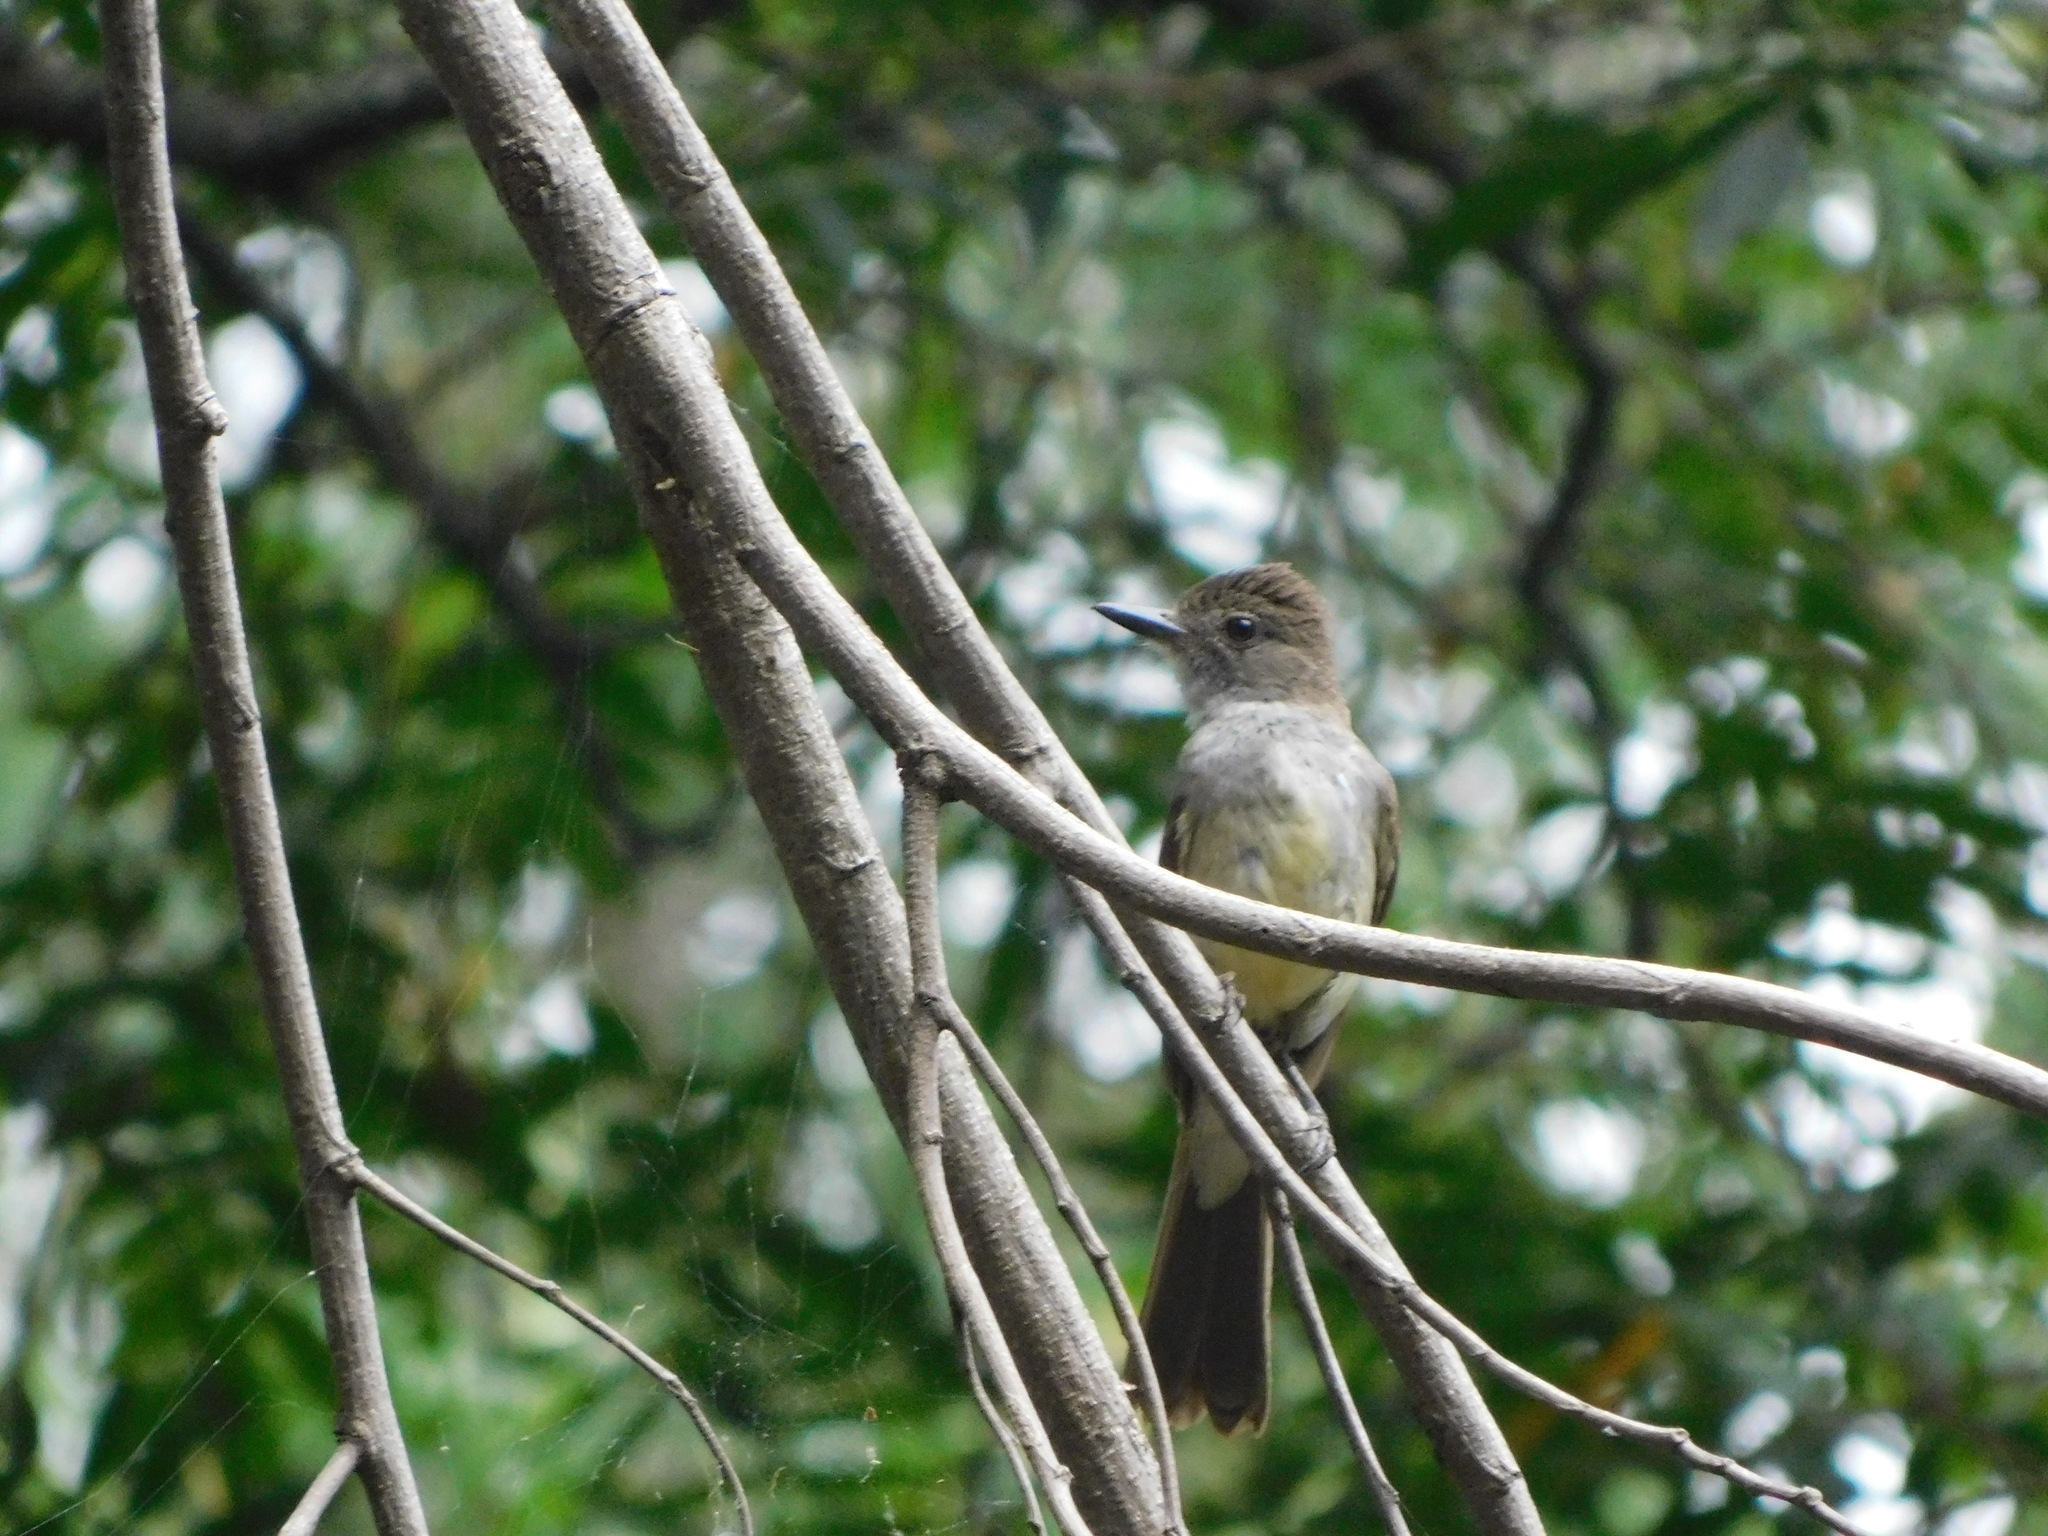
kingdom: Animalia
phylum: Chordata
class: Aves
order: Passeriformes
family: Tyrannidae
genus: Myiarchus
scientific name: Myiarchus ferox
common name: Short-crested flycatcher
